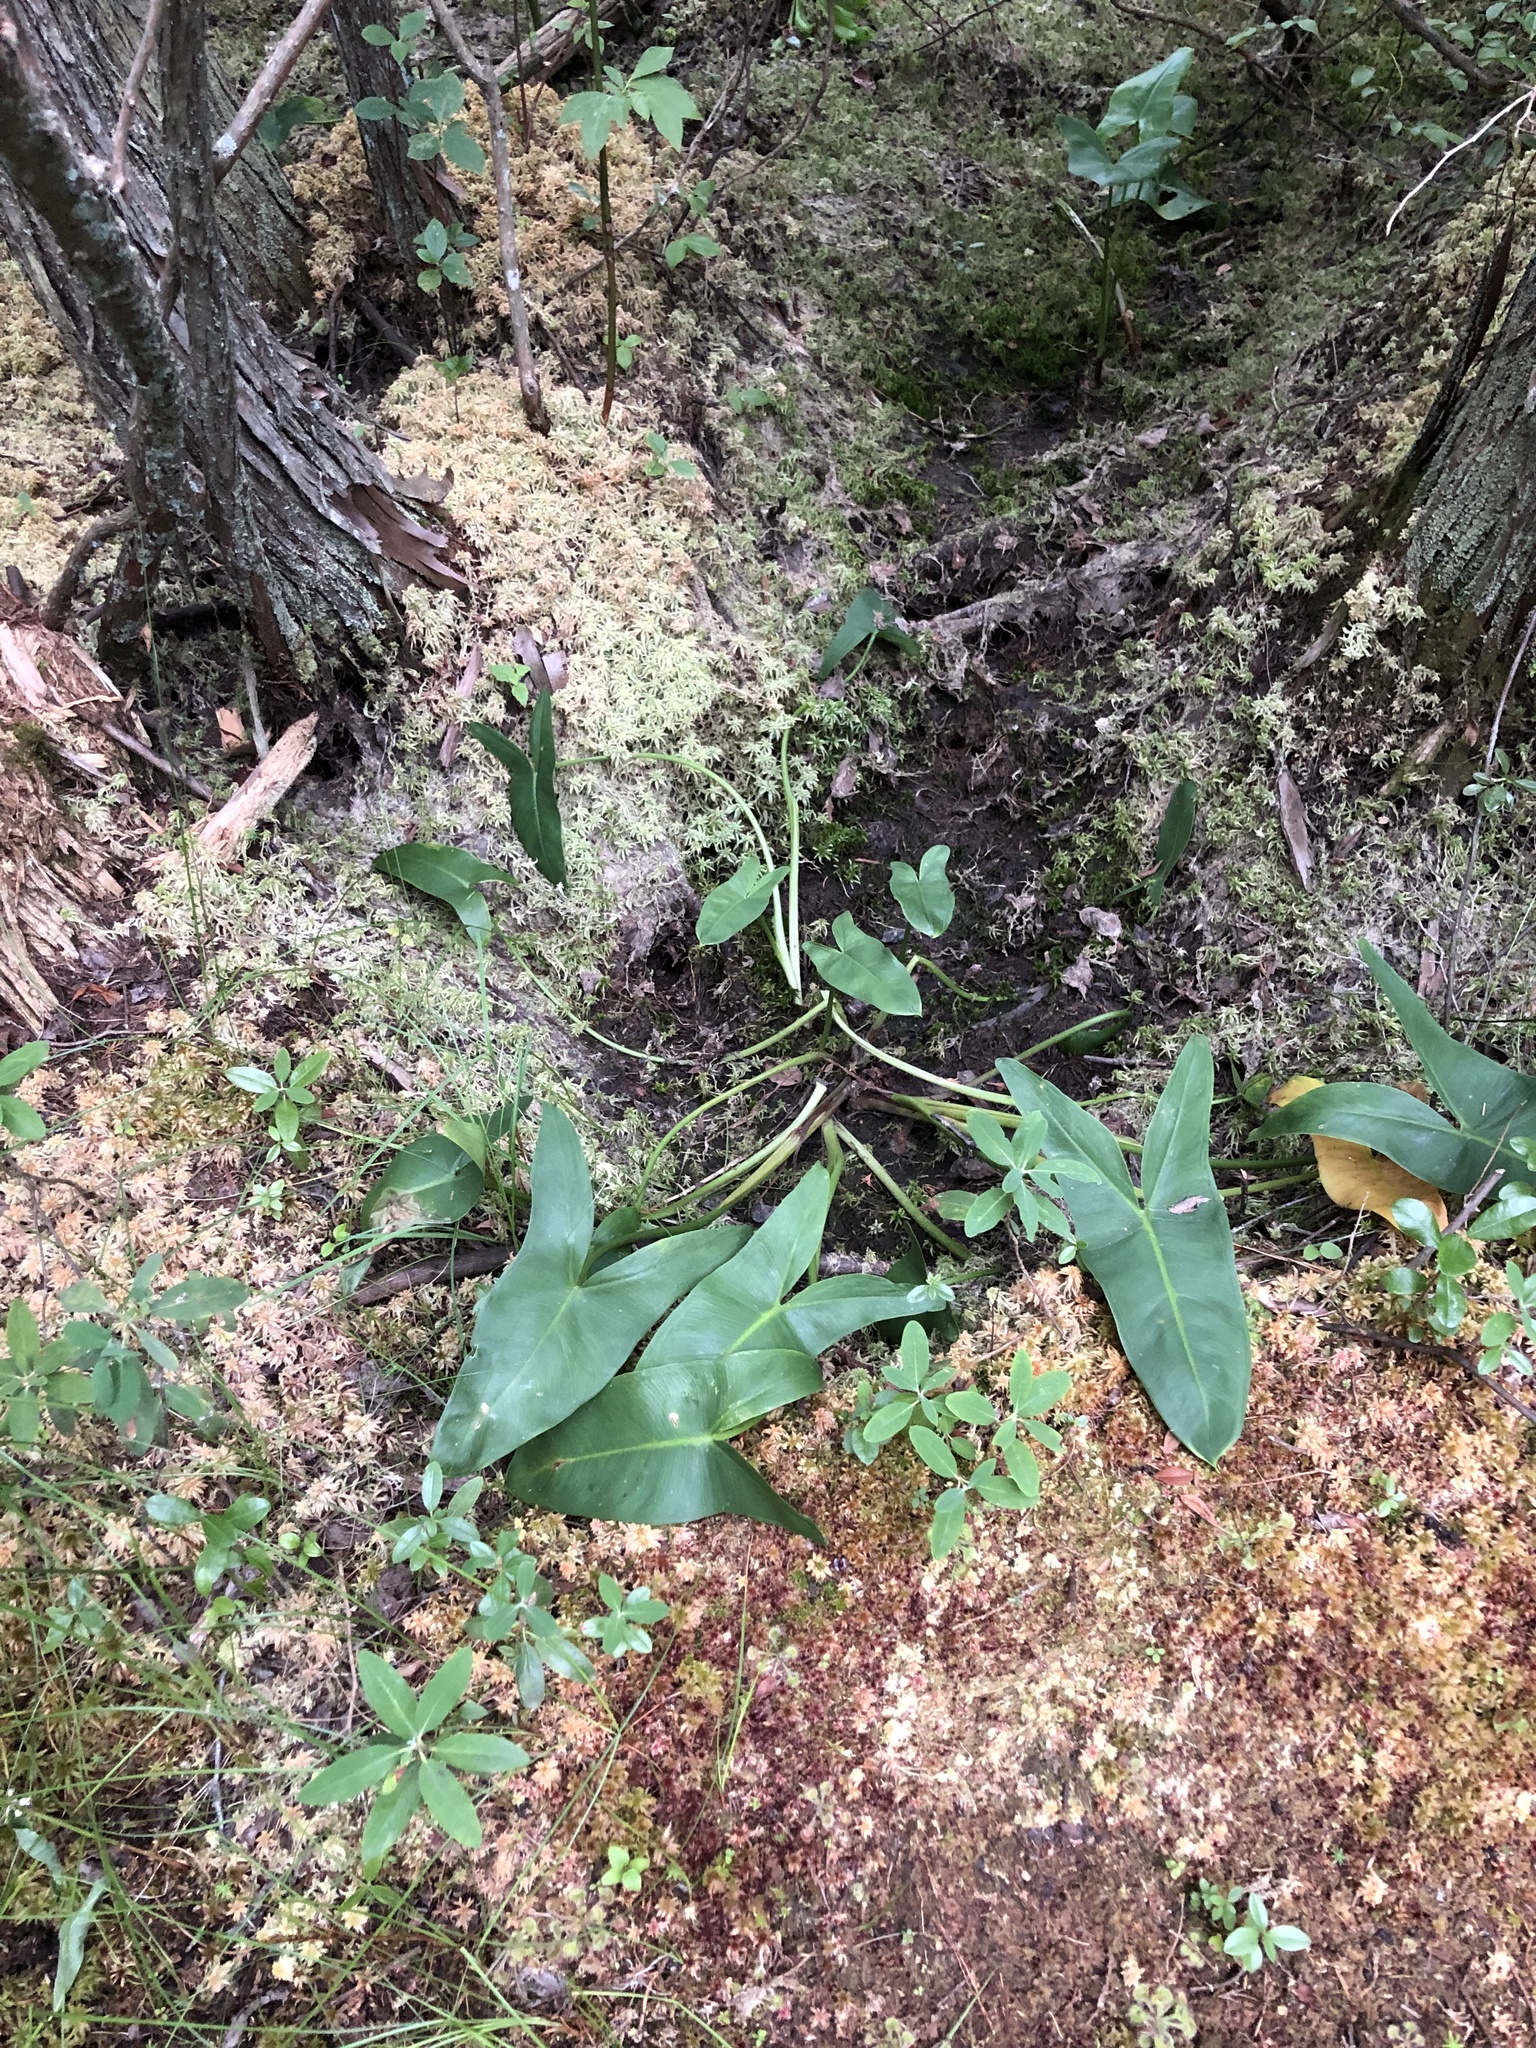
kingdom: Plantae
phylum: Tracheophyta
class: Liliopsida
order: Alismatales
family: Araceae
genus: Peltandra
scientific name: Peltandra virginica
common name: Arrow arum
